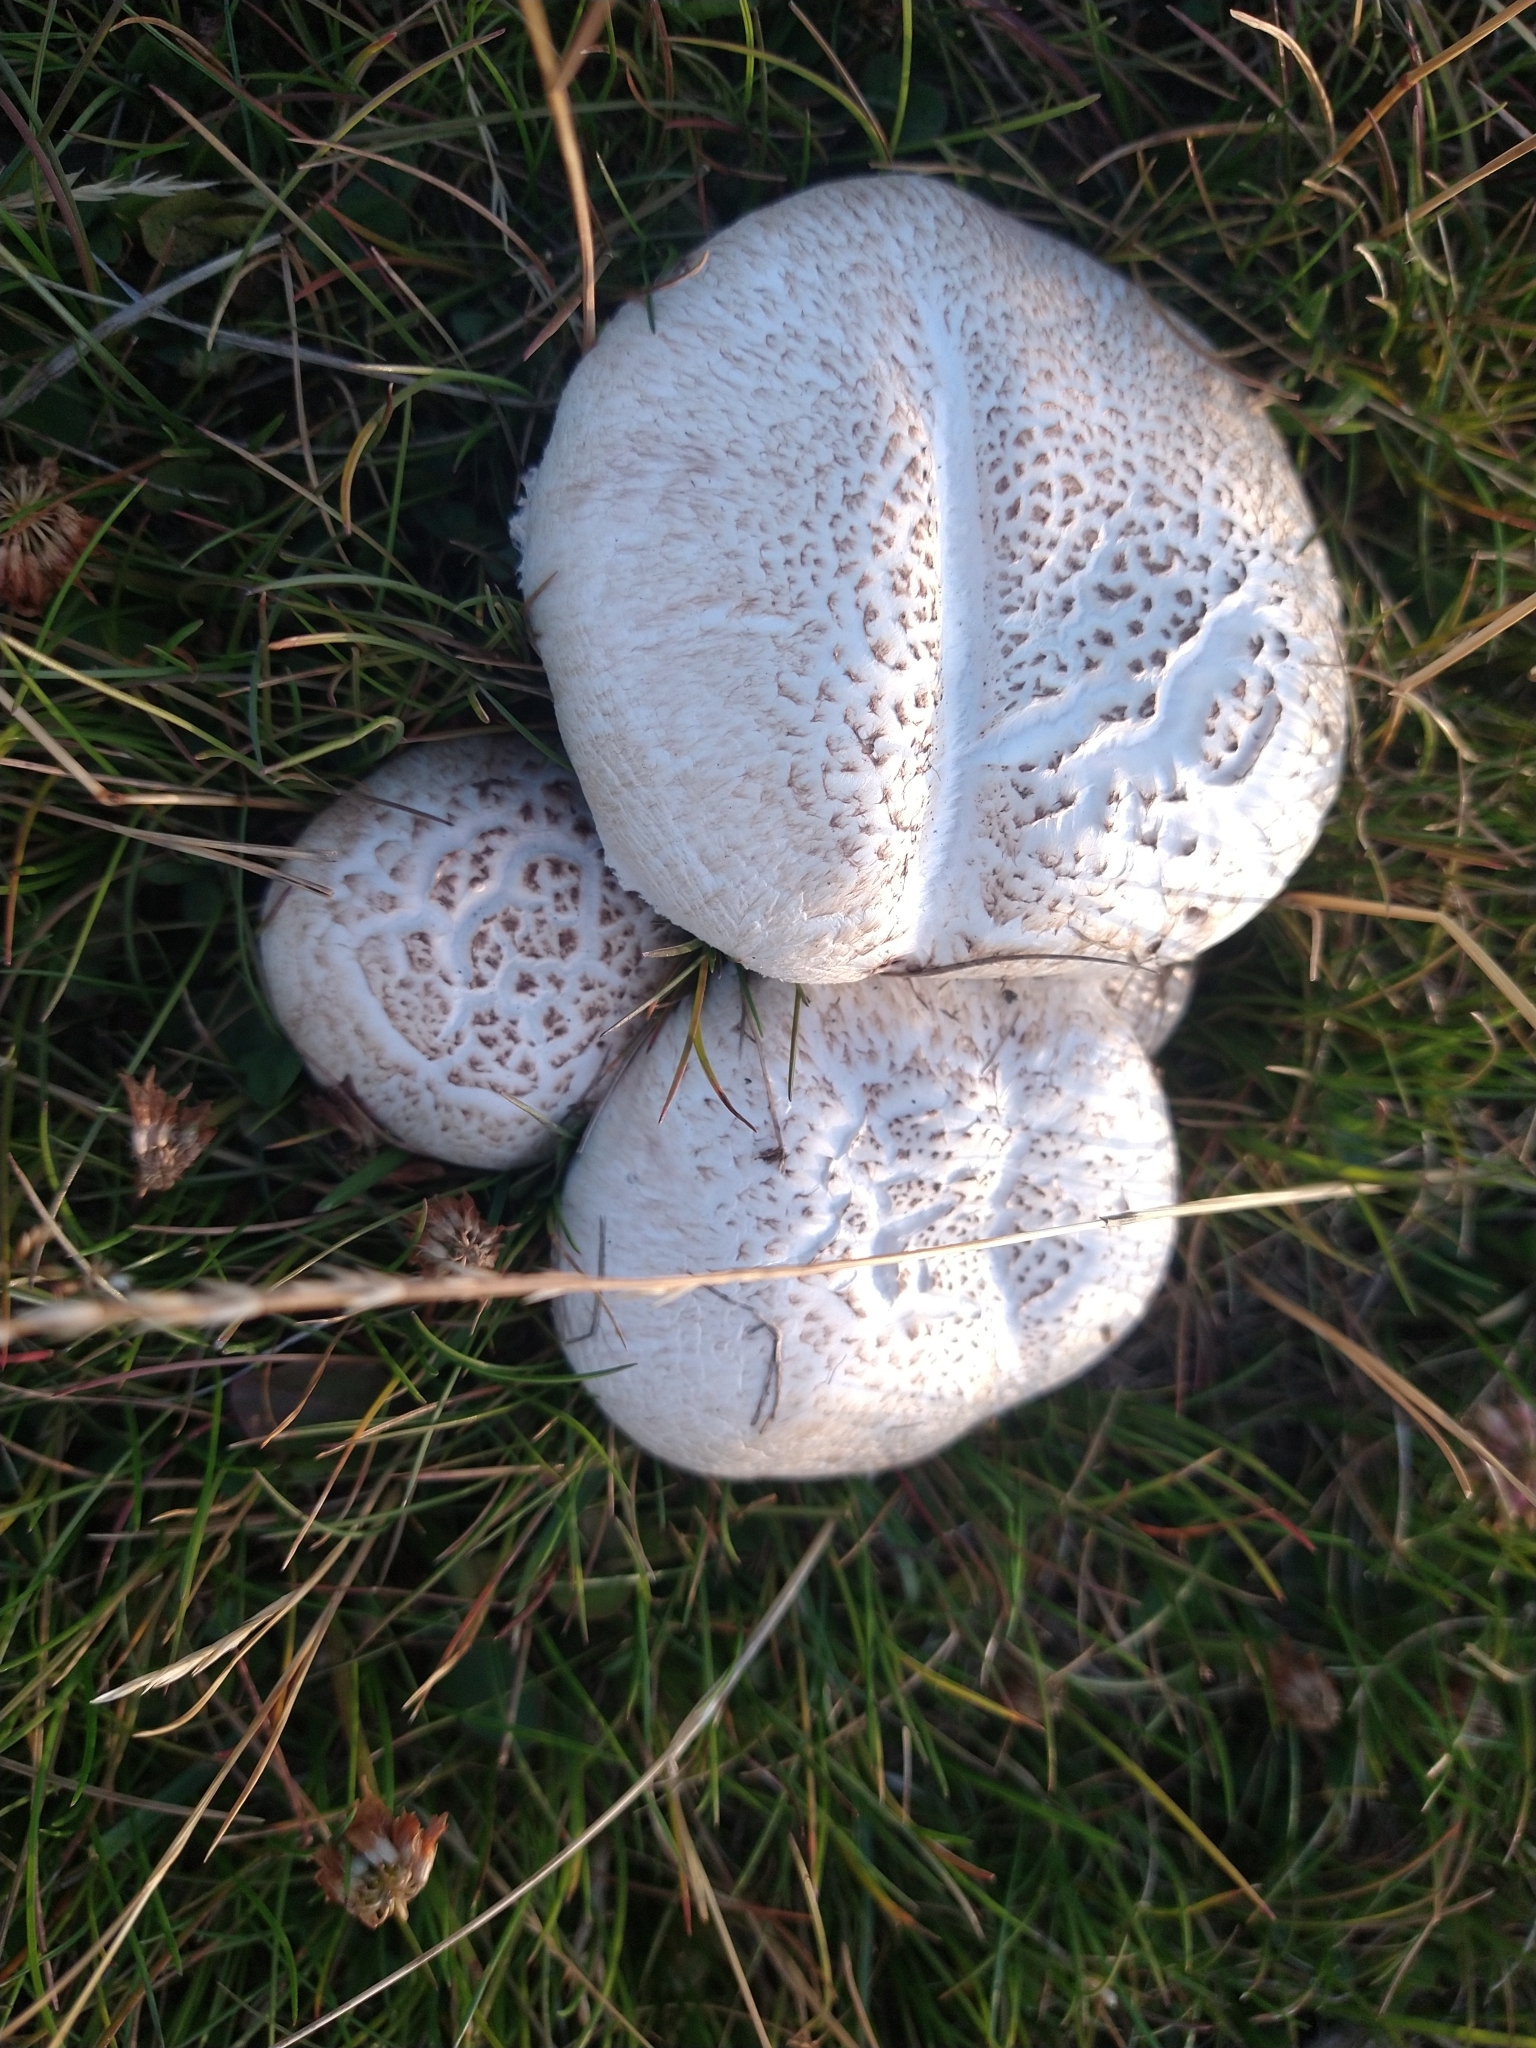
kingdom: Fungi
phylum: Basidiomycota
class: Agaricomycetes
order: Agaricales
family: Lycoperdaceae
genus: Calvatia
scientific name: Calvatia cyathiformis
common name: Purple-spored puffball
